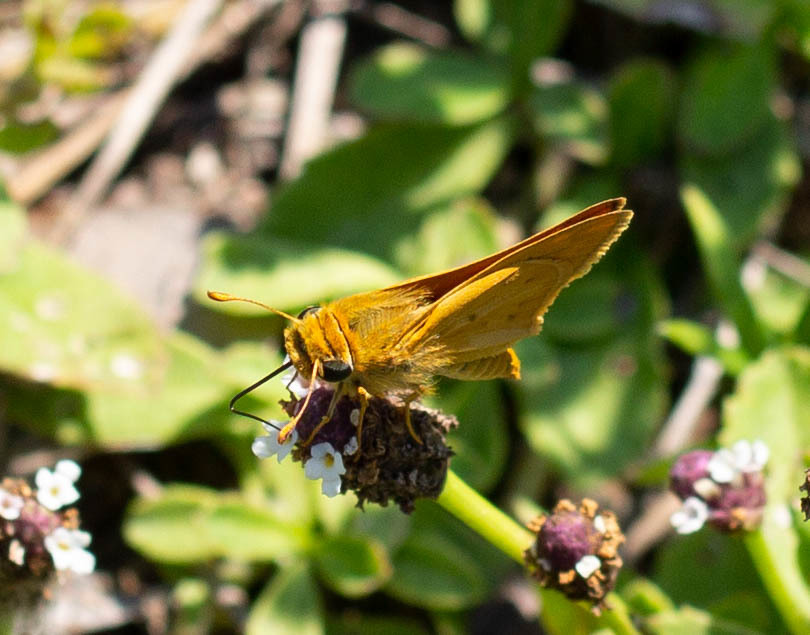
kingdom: Animalia
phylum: Arthropoda
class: Insecta
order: Lepidoptera
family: Hesperiidae
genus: Hylephila
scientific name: Hylephila phyleus
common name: Fiery skipper
